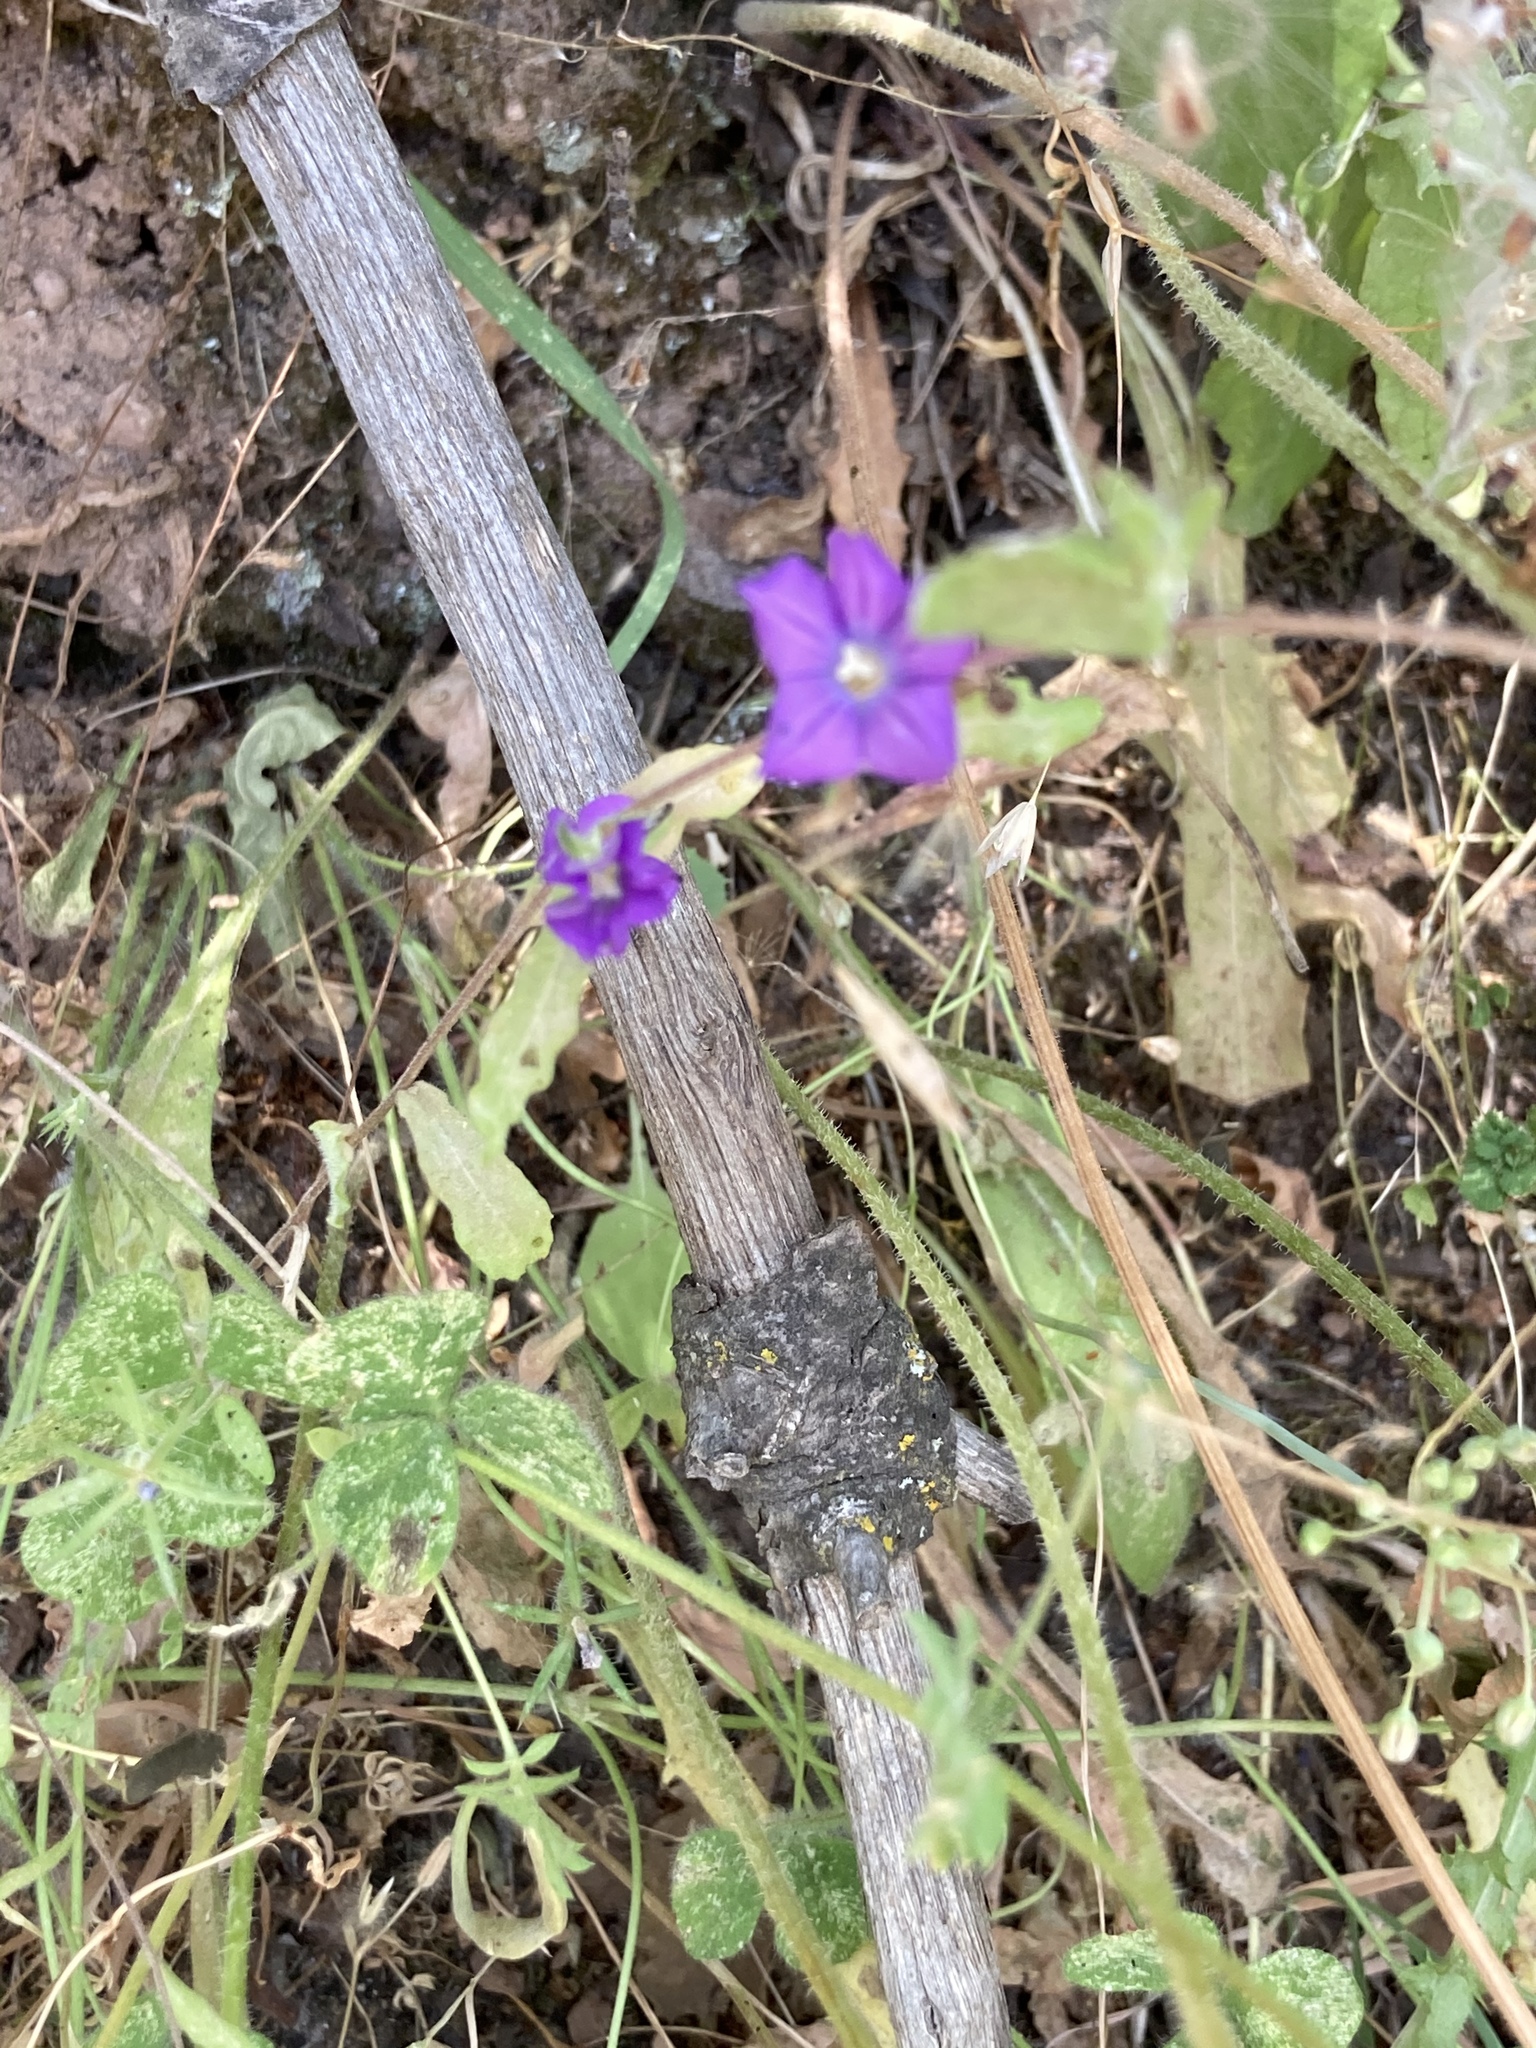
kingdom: Plantae
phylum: Tracheophyta
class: Magnoliopsida
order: Asterales
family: Campanulaceae
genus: Legousia
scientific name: Legousia speculum-veneris
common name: Large venus's-looking-glass
